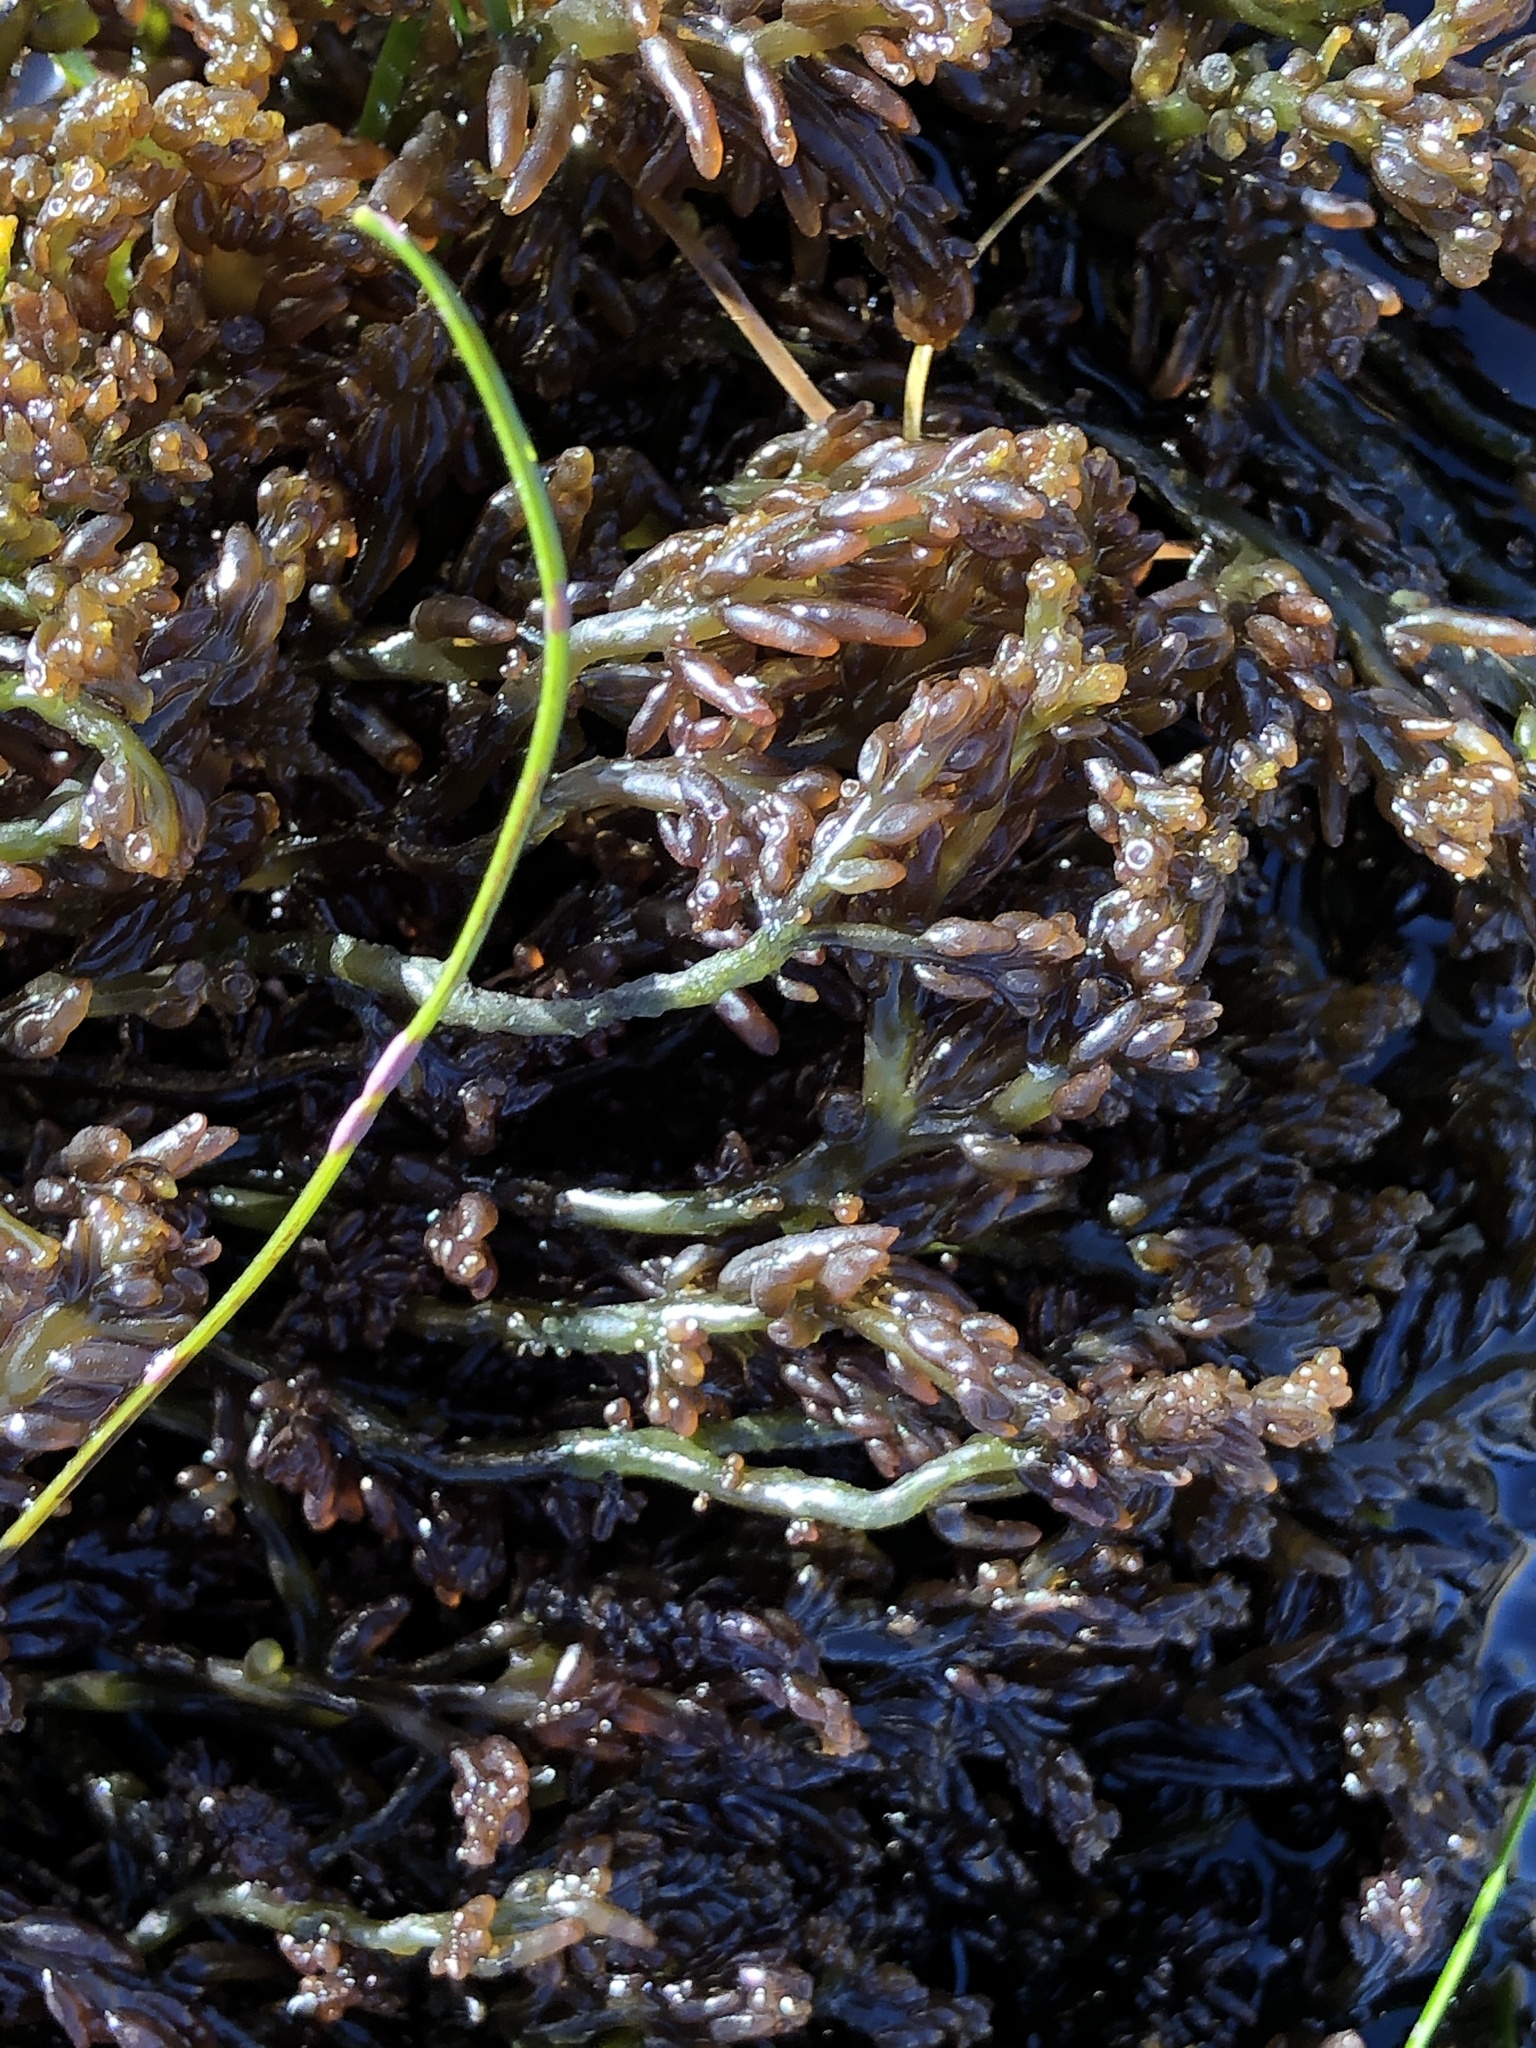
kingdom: Plantae
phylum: Rhodophyta
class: Florideophyceae
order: Rhodymeniales
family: Champiaceae
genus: Neogastroclonium
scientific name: Neogastroclonium subarticulatum
